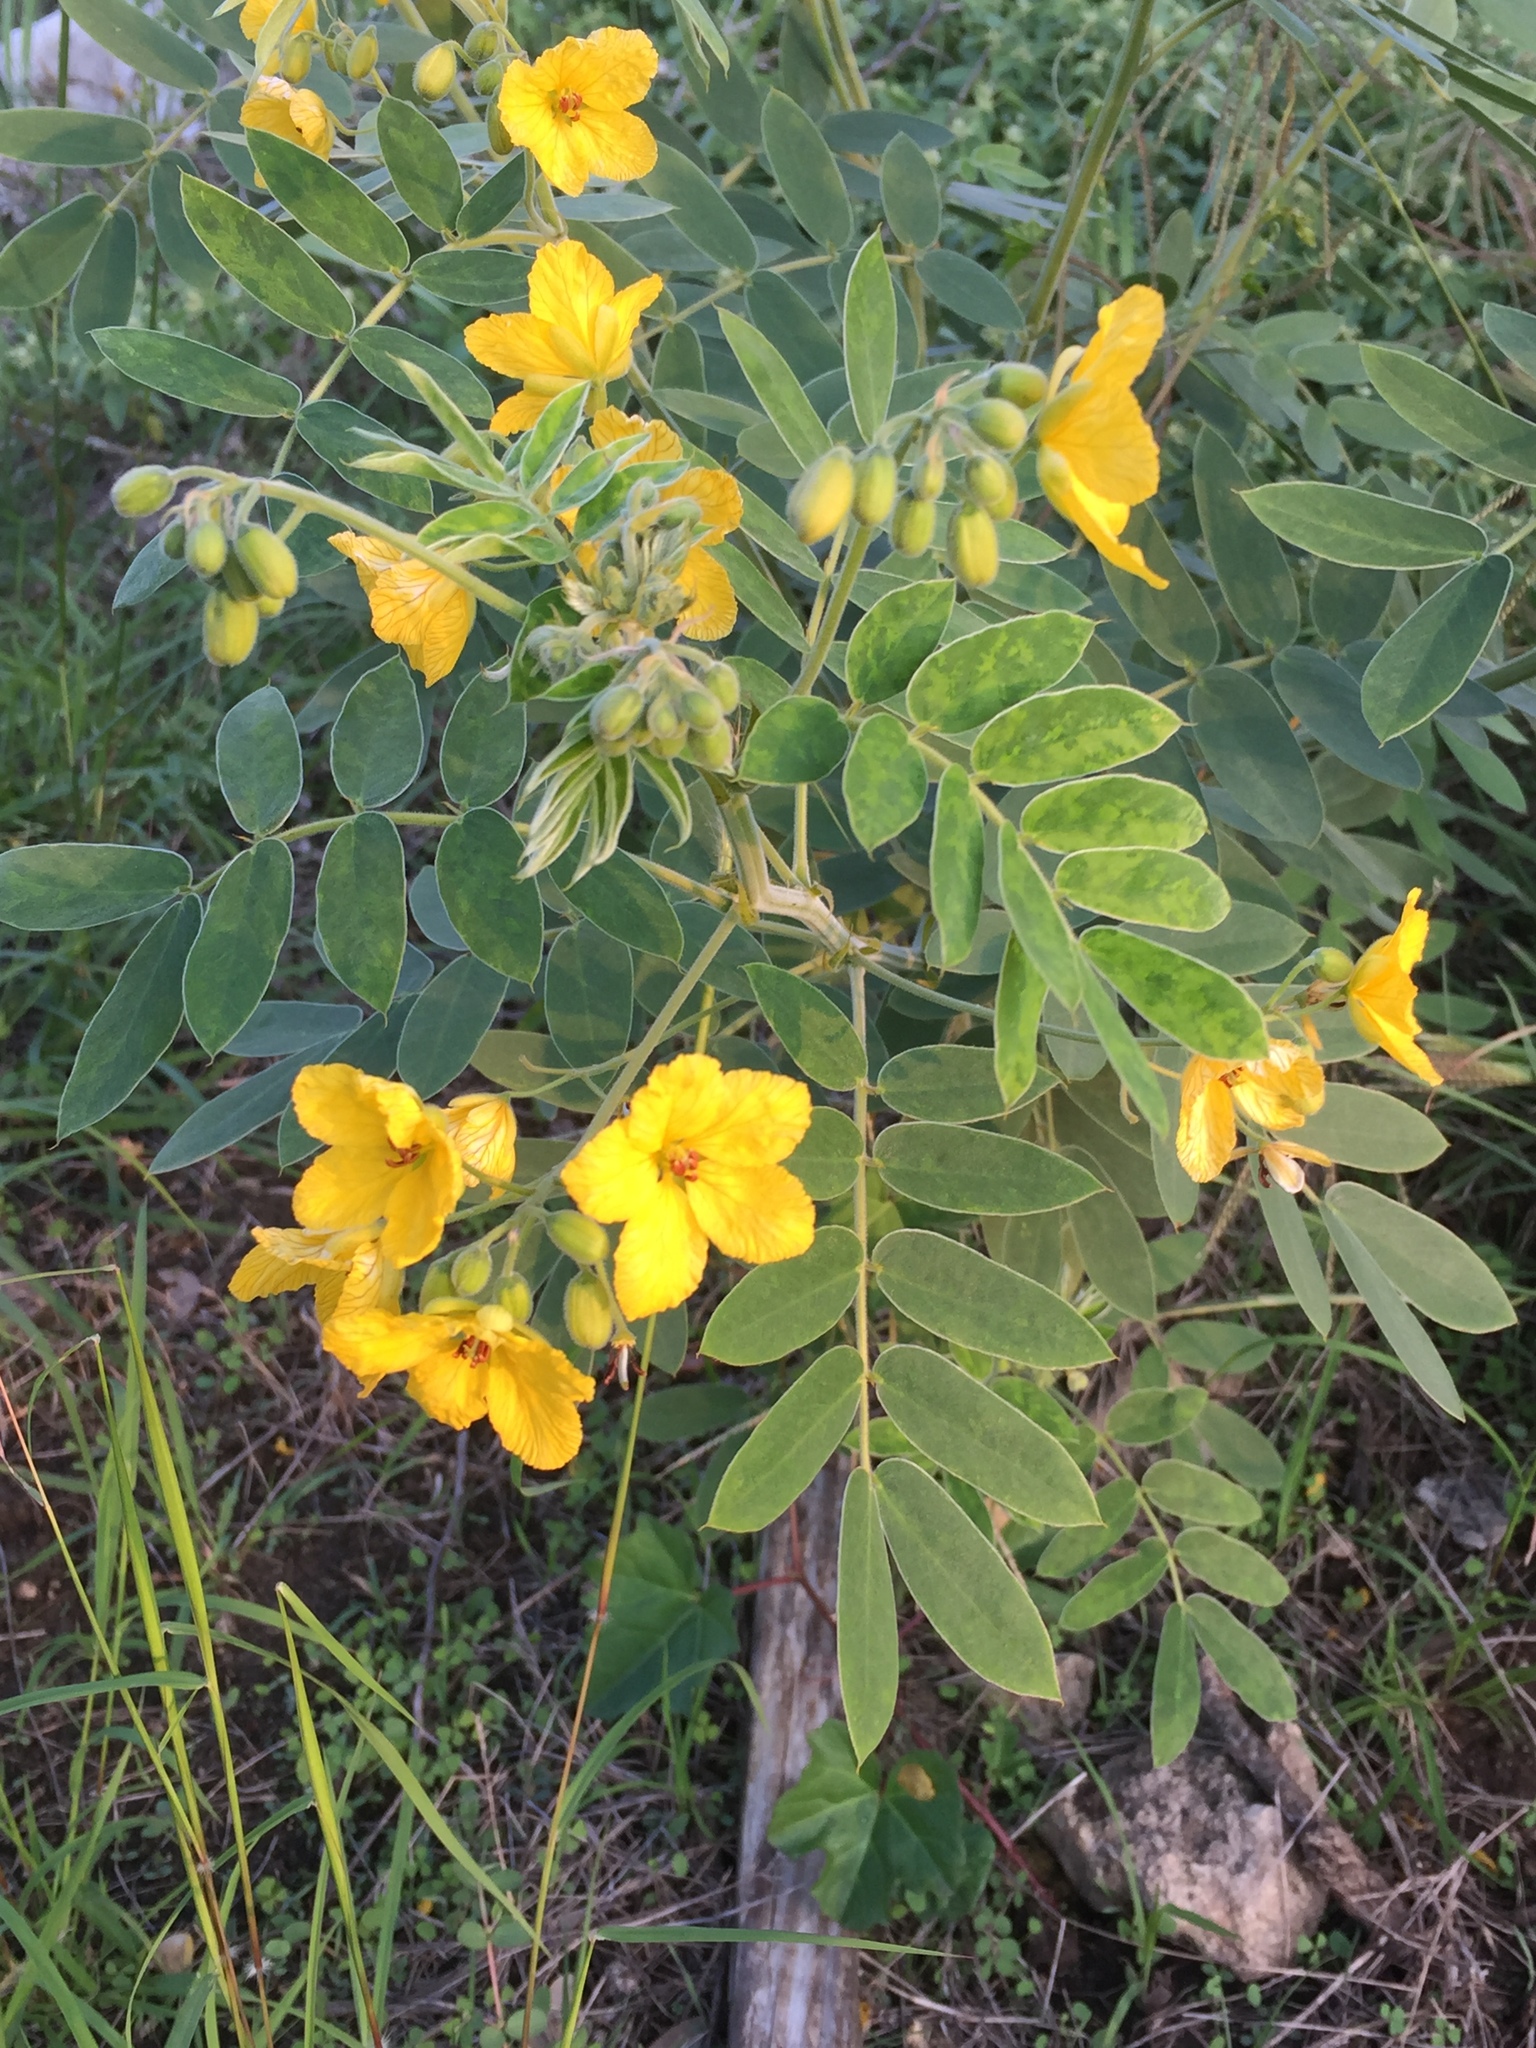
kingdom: Plantae
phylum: Tracheophyta
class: Magnoliopsida
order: Fabales
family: Fabaceae
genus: Senna
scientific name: Senna lindheimeriana
